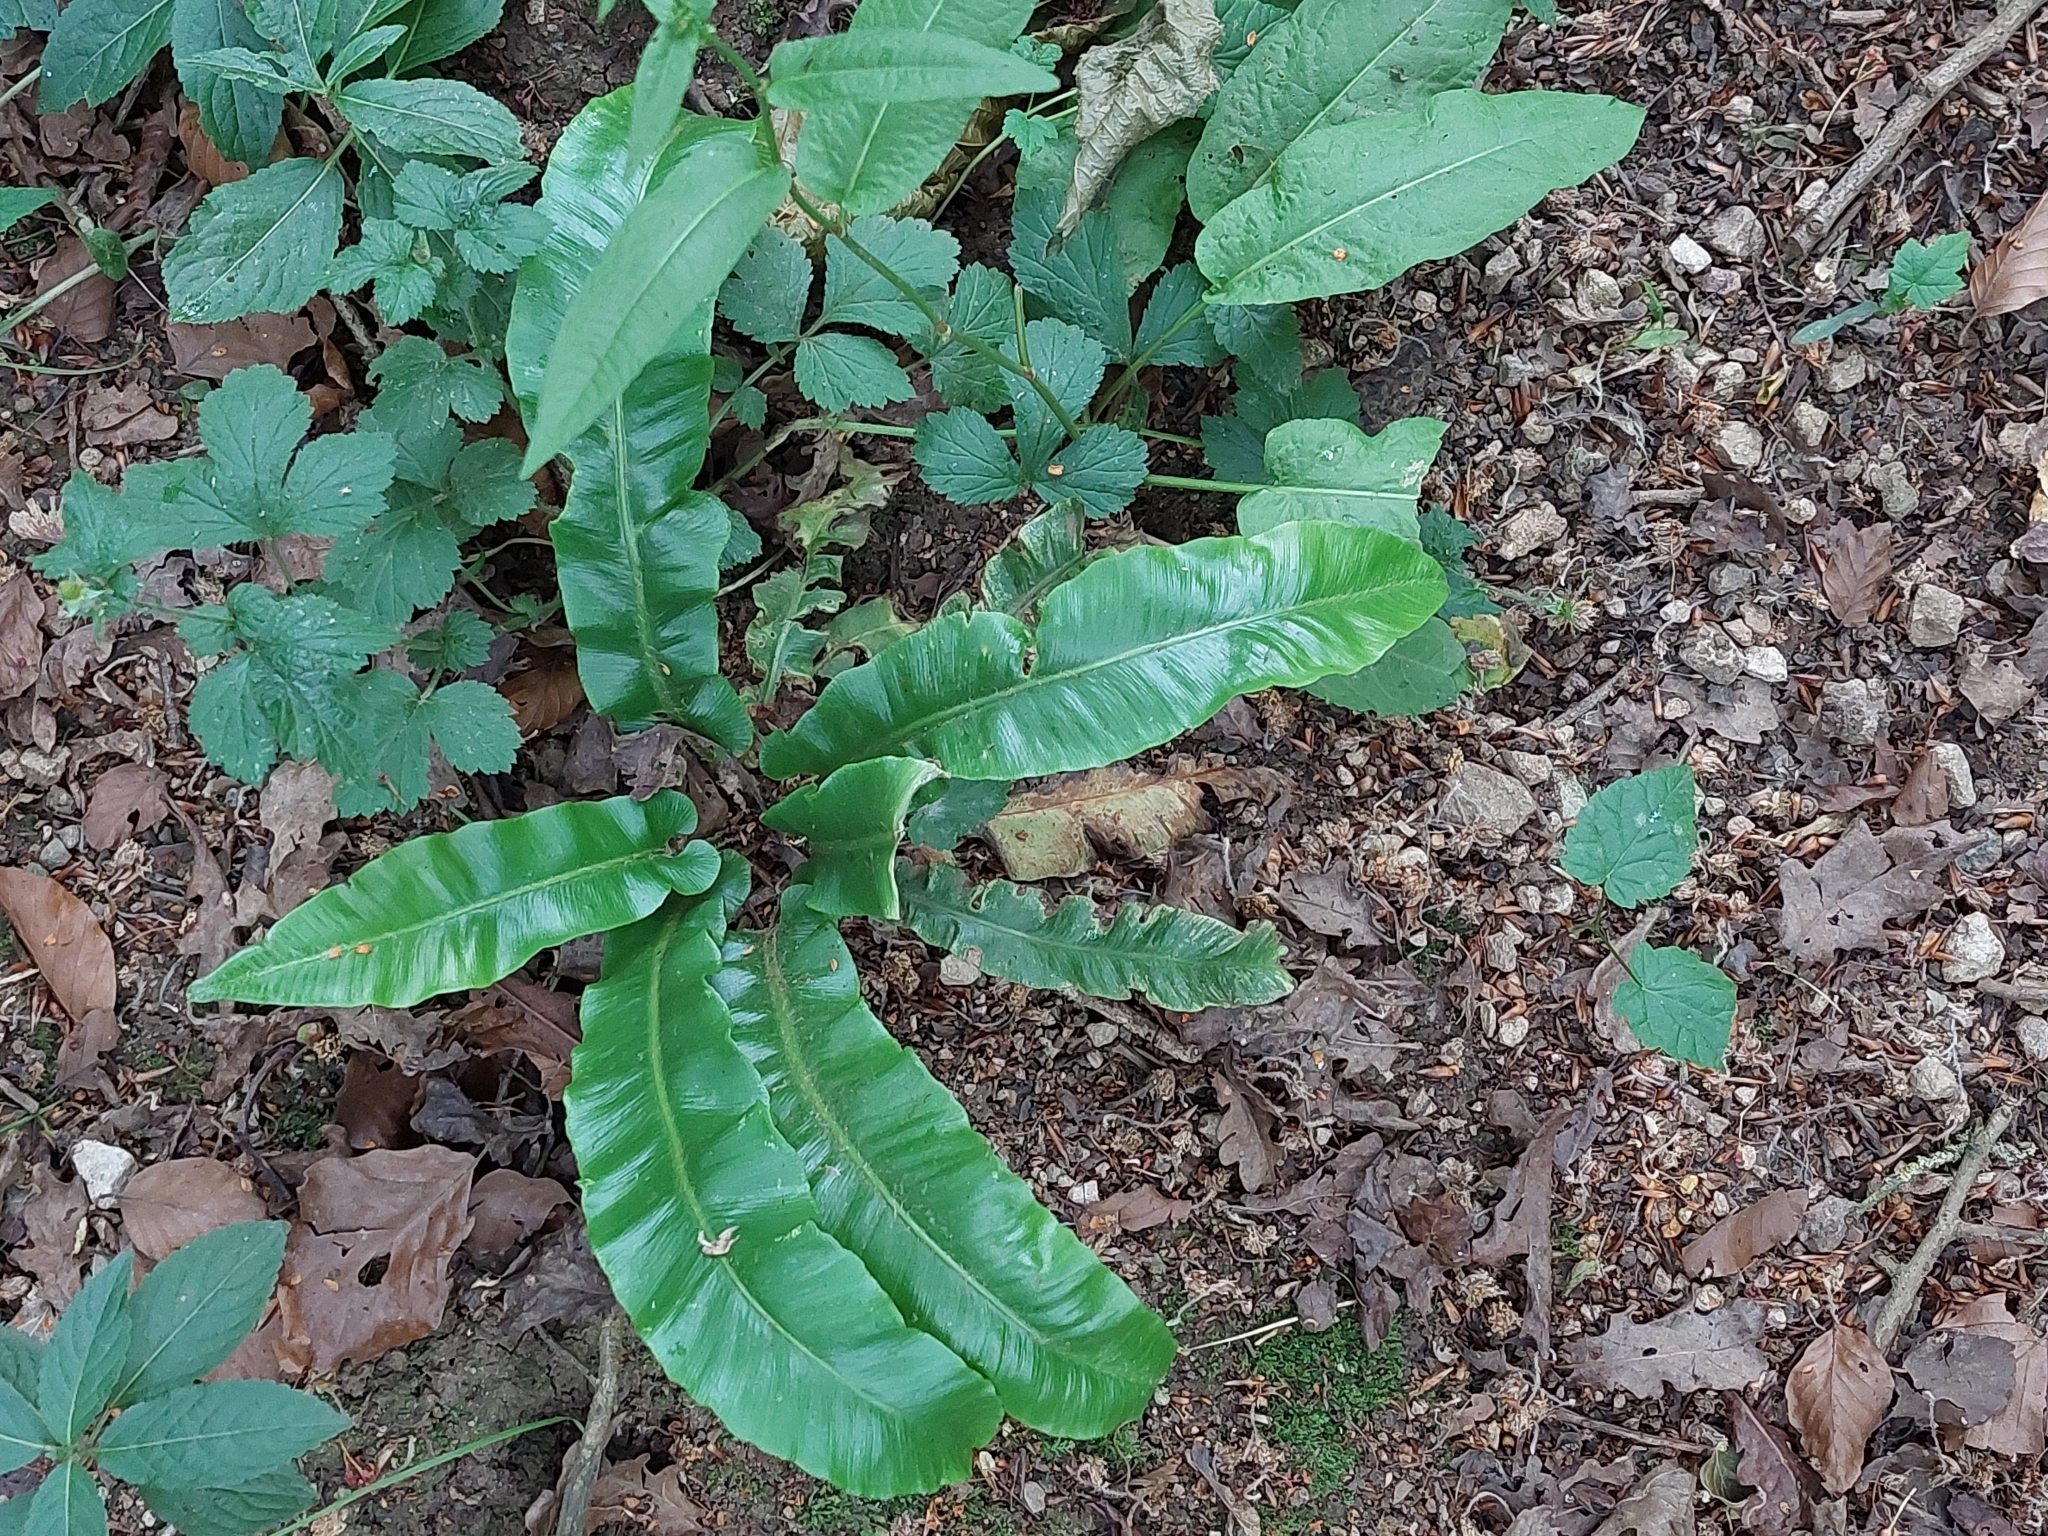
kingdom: Plantae
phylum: Tracheophyta
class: Polypodiopsida
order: Polypodiales
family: Aspleniaceae
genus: Asplenium
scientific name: Asplenium scolopendrium
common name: Hart's-tongue fern
